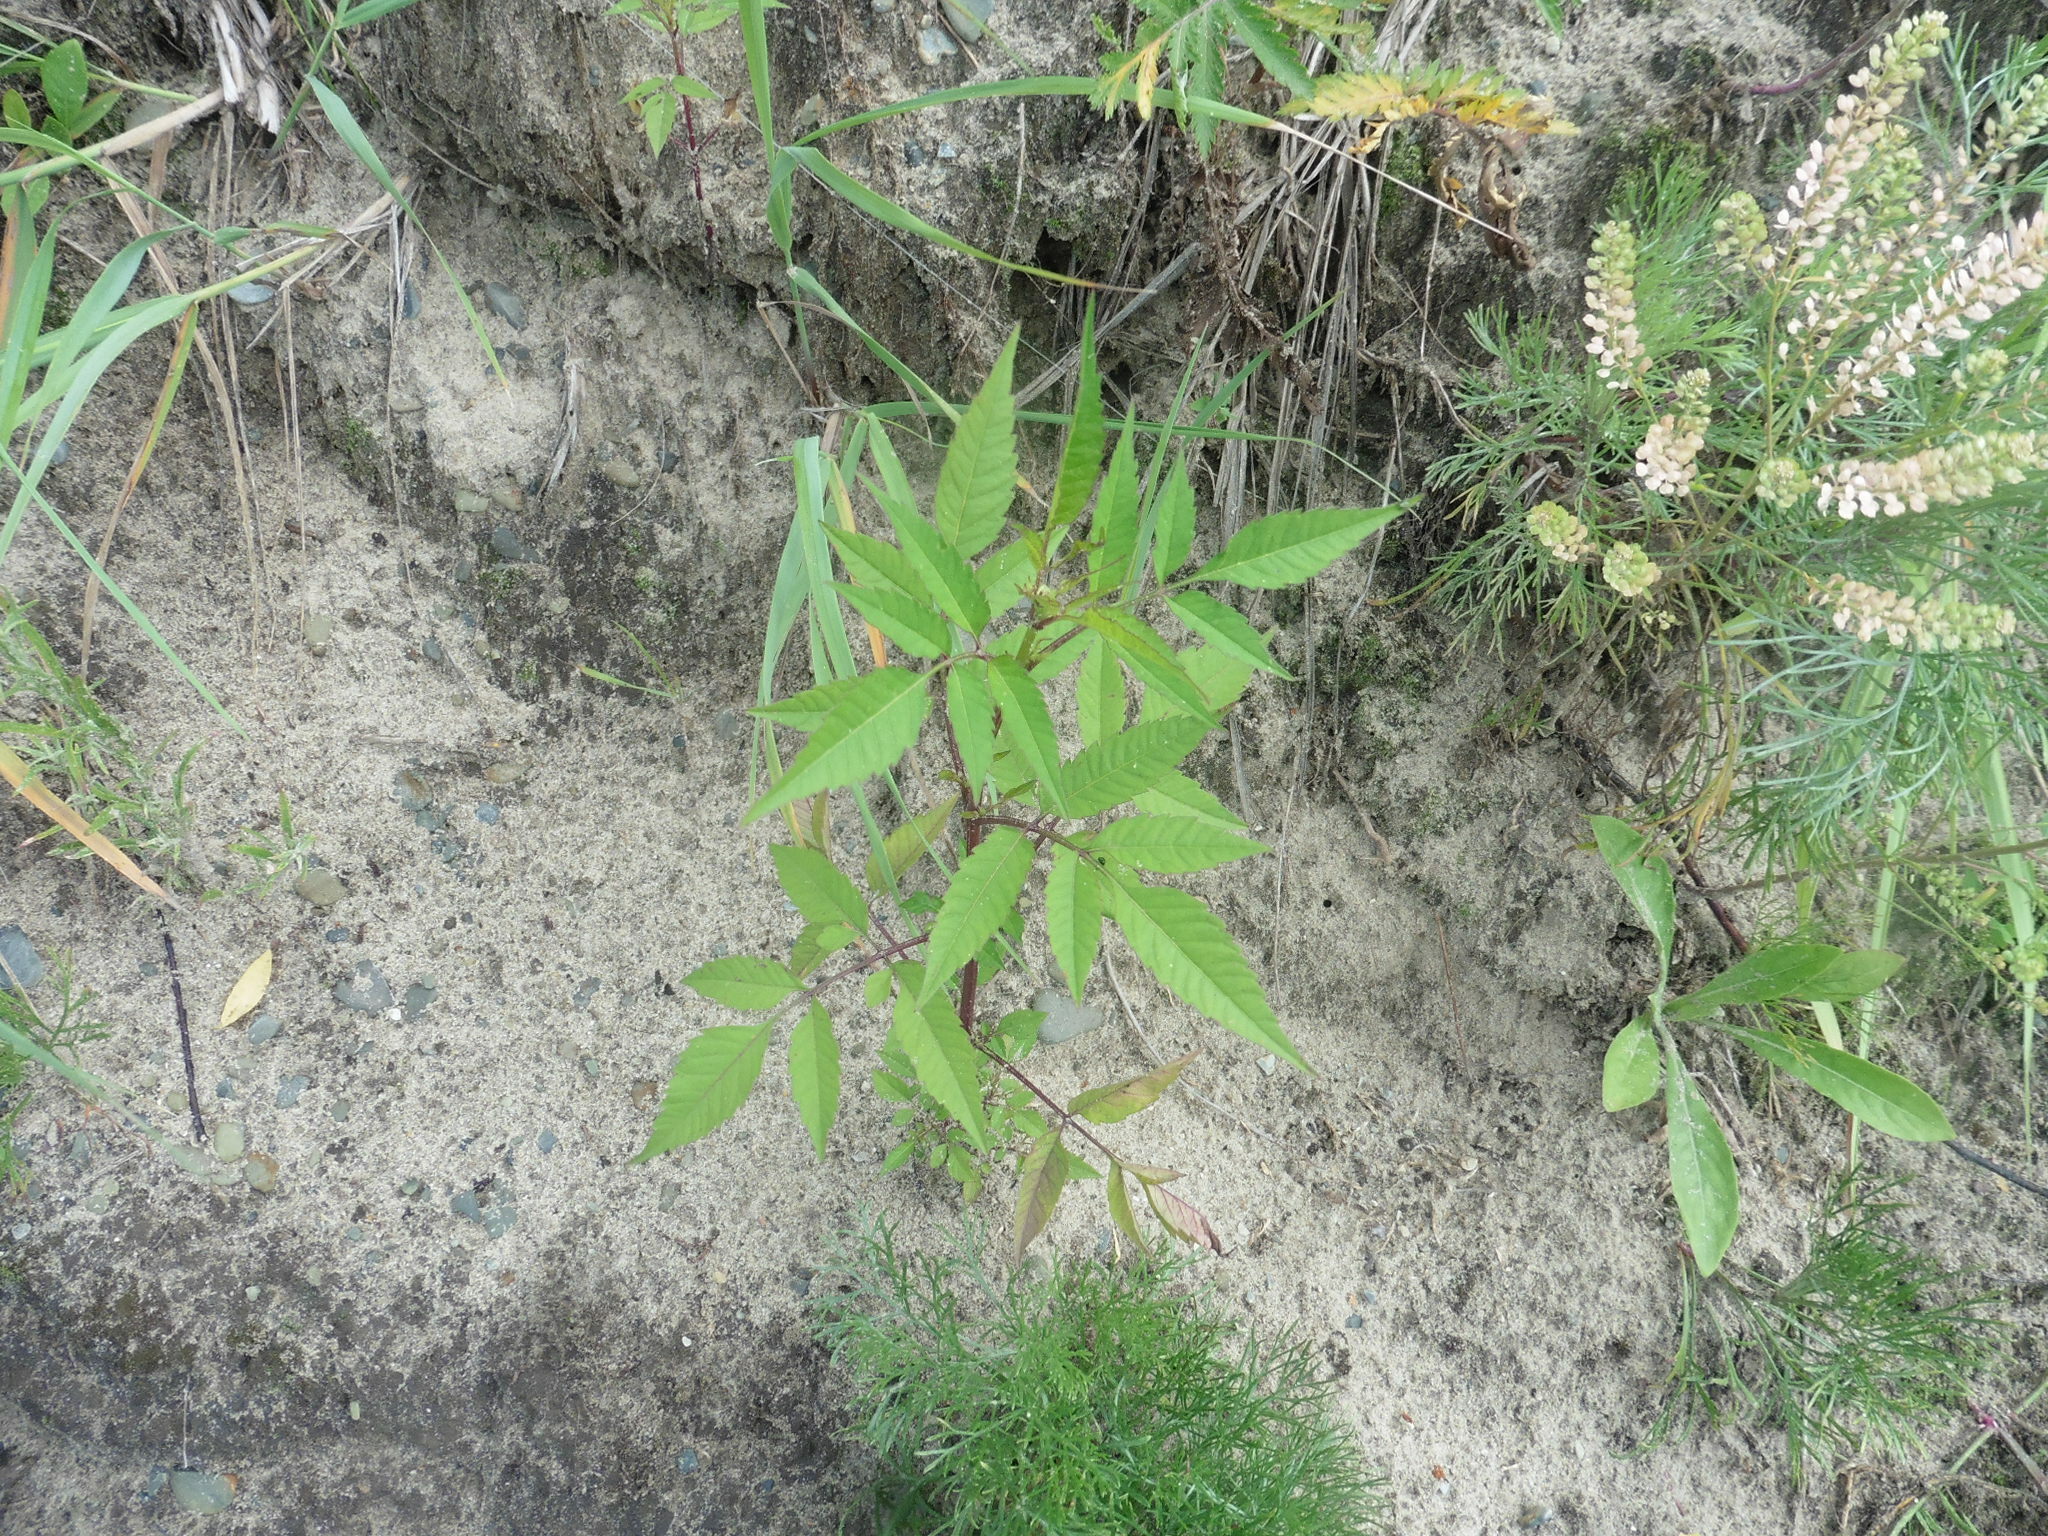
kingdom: Plantae
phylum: Tracheophyta
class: Magnoliopsida
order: Asterales
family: Asteraceae
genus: Bidens
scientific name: Bidens frondosa
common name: Beggarticks
